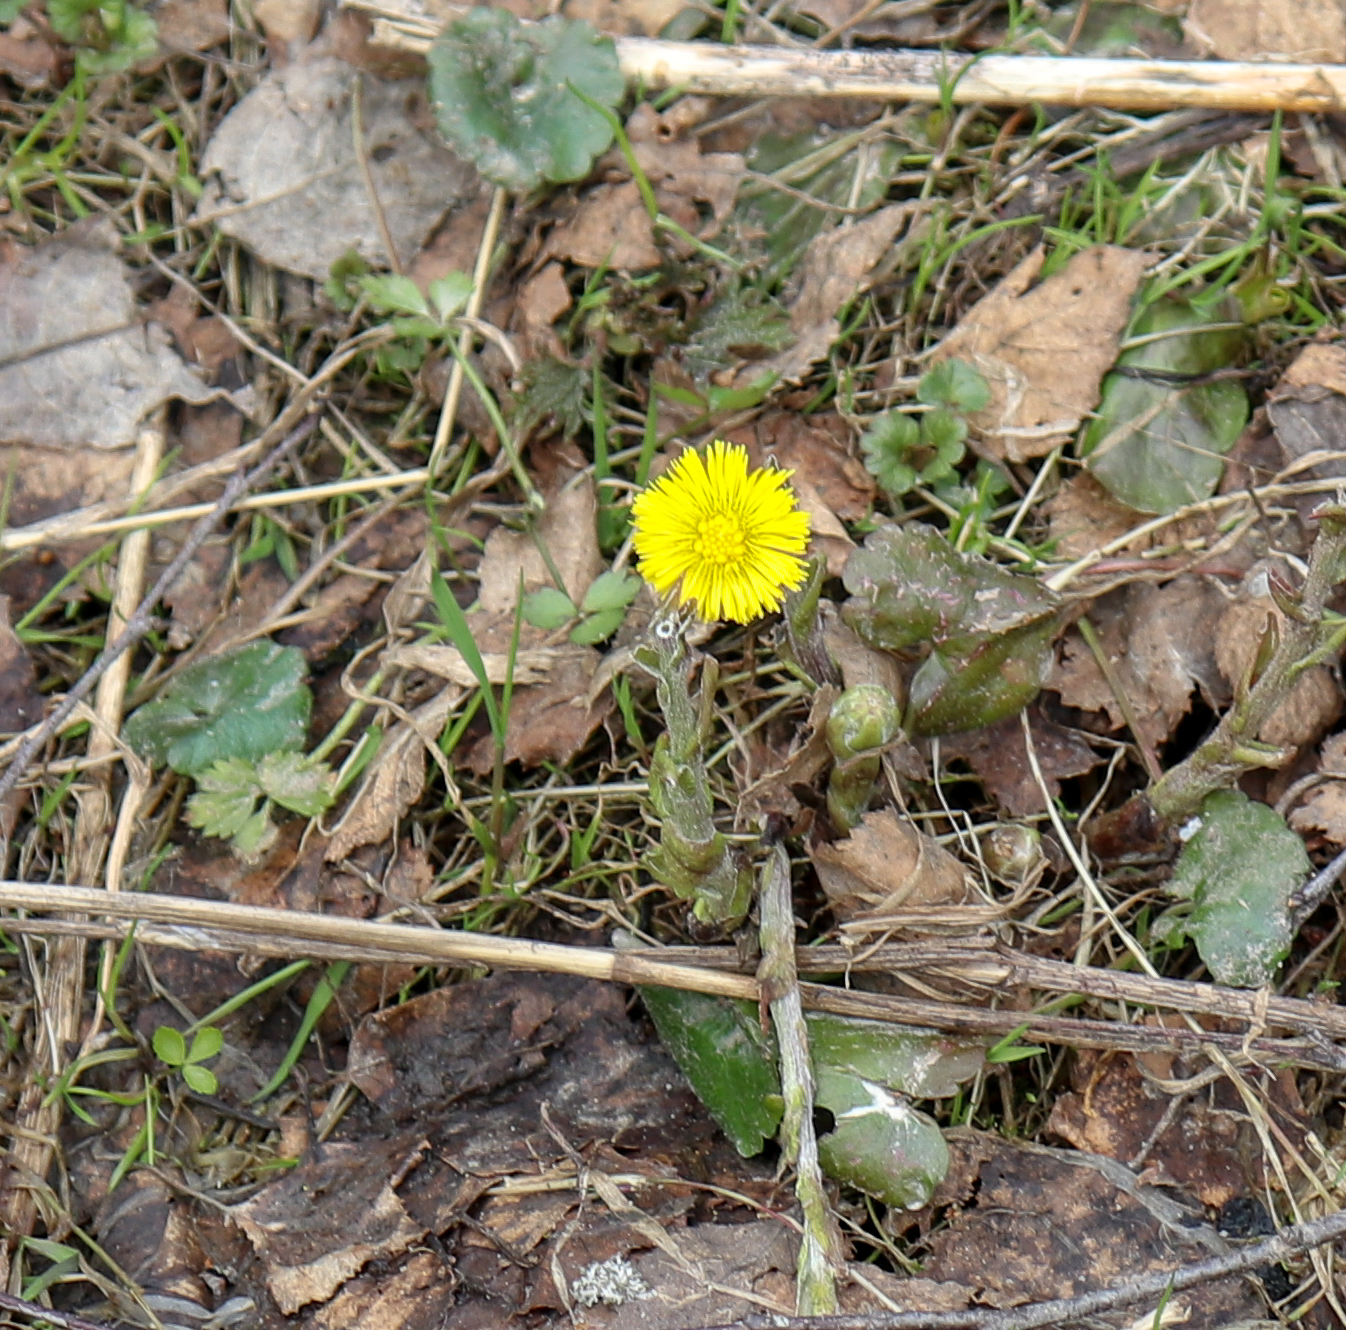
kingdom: Plantae
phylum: Tracheophyta
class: Magnoliopsida
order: Asterales
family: Asteraceae
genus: Tussilago
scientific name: Tussilago farfara
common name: Coltsfoot
